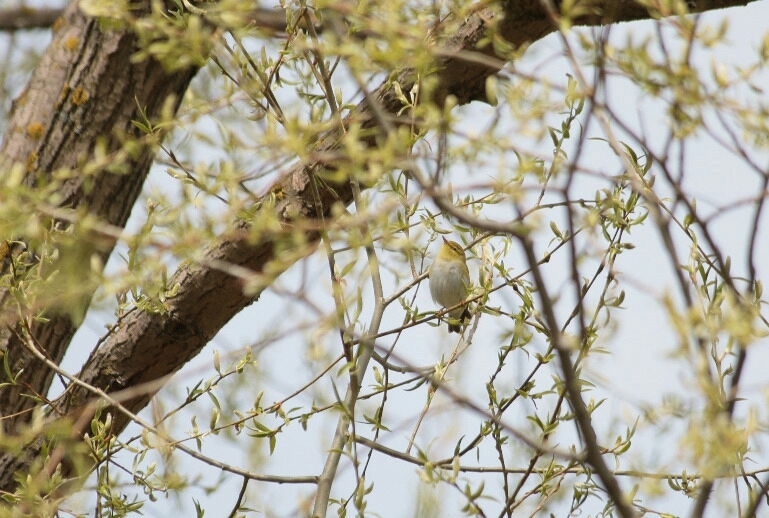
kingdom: Animalia
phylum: Chordata
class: Aves
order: Passeriformes
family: Phylloscopidae
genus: Phylloscopus
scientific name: Phylloscopus sibillatrix
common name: Wood warbler
